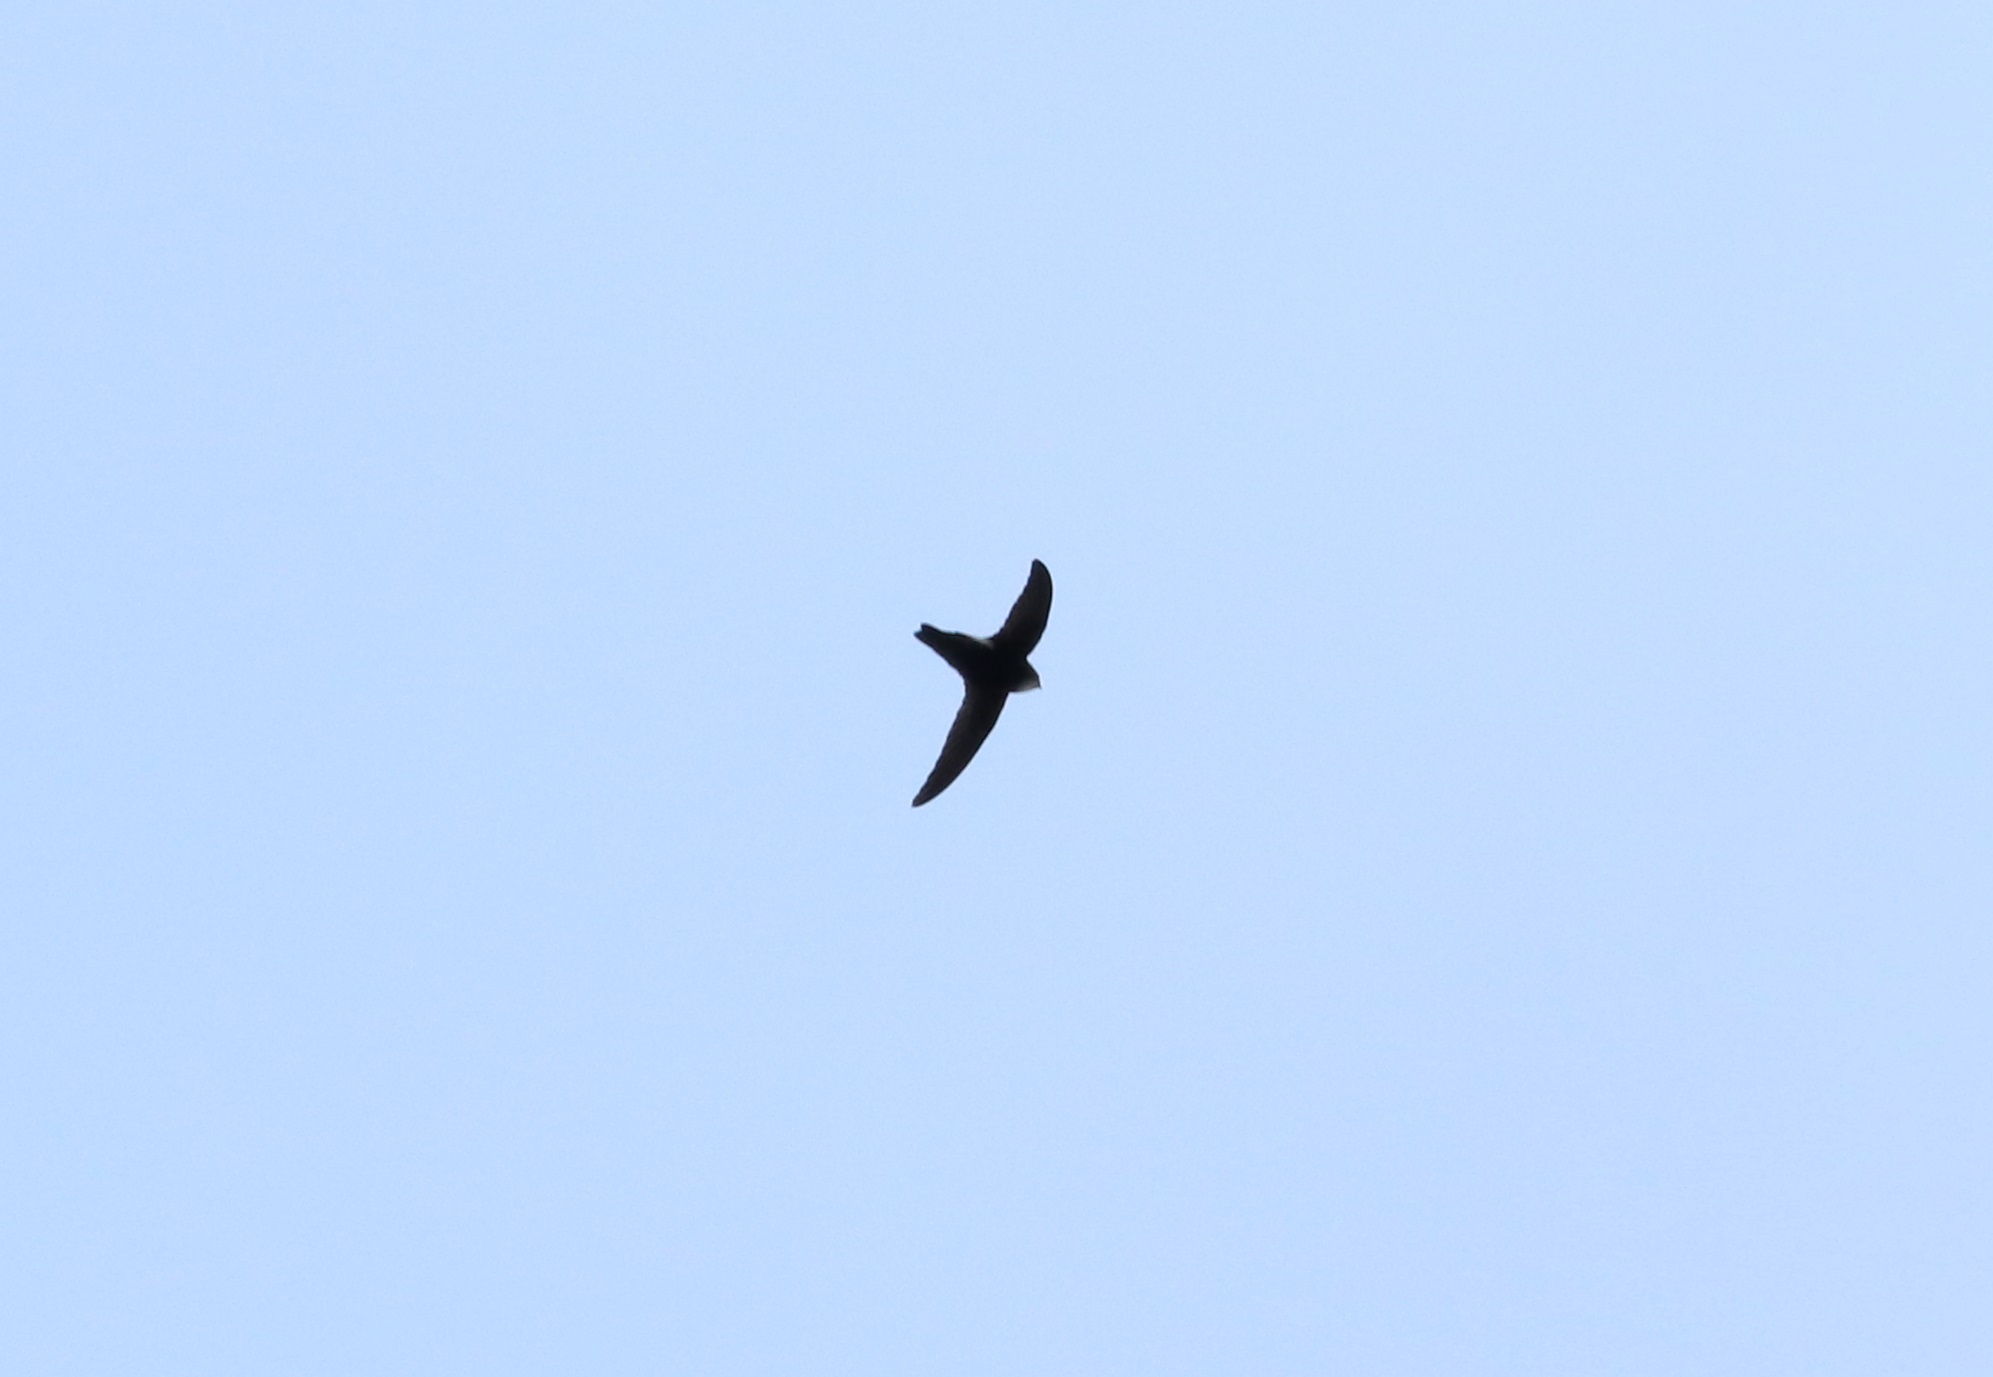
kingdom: Animalia
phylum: Chordata
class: Aves
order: Apodiformes
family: Apodidae
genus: Apus
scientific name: Apus nipalensis
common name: House swift
